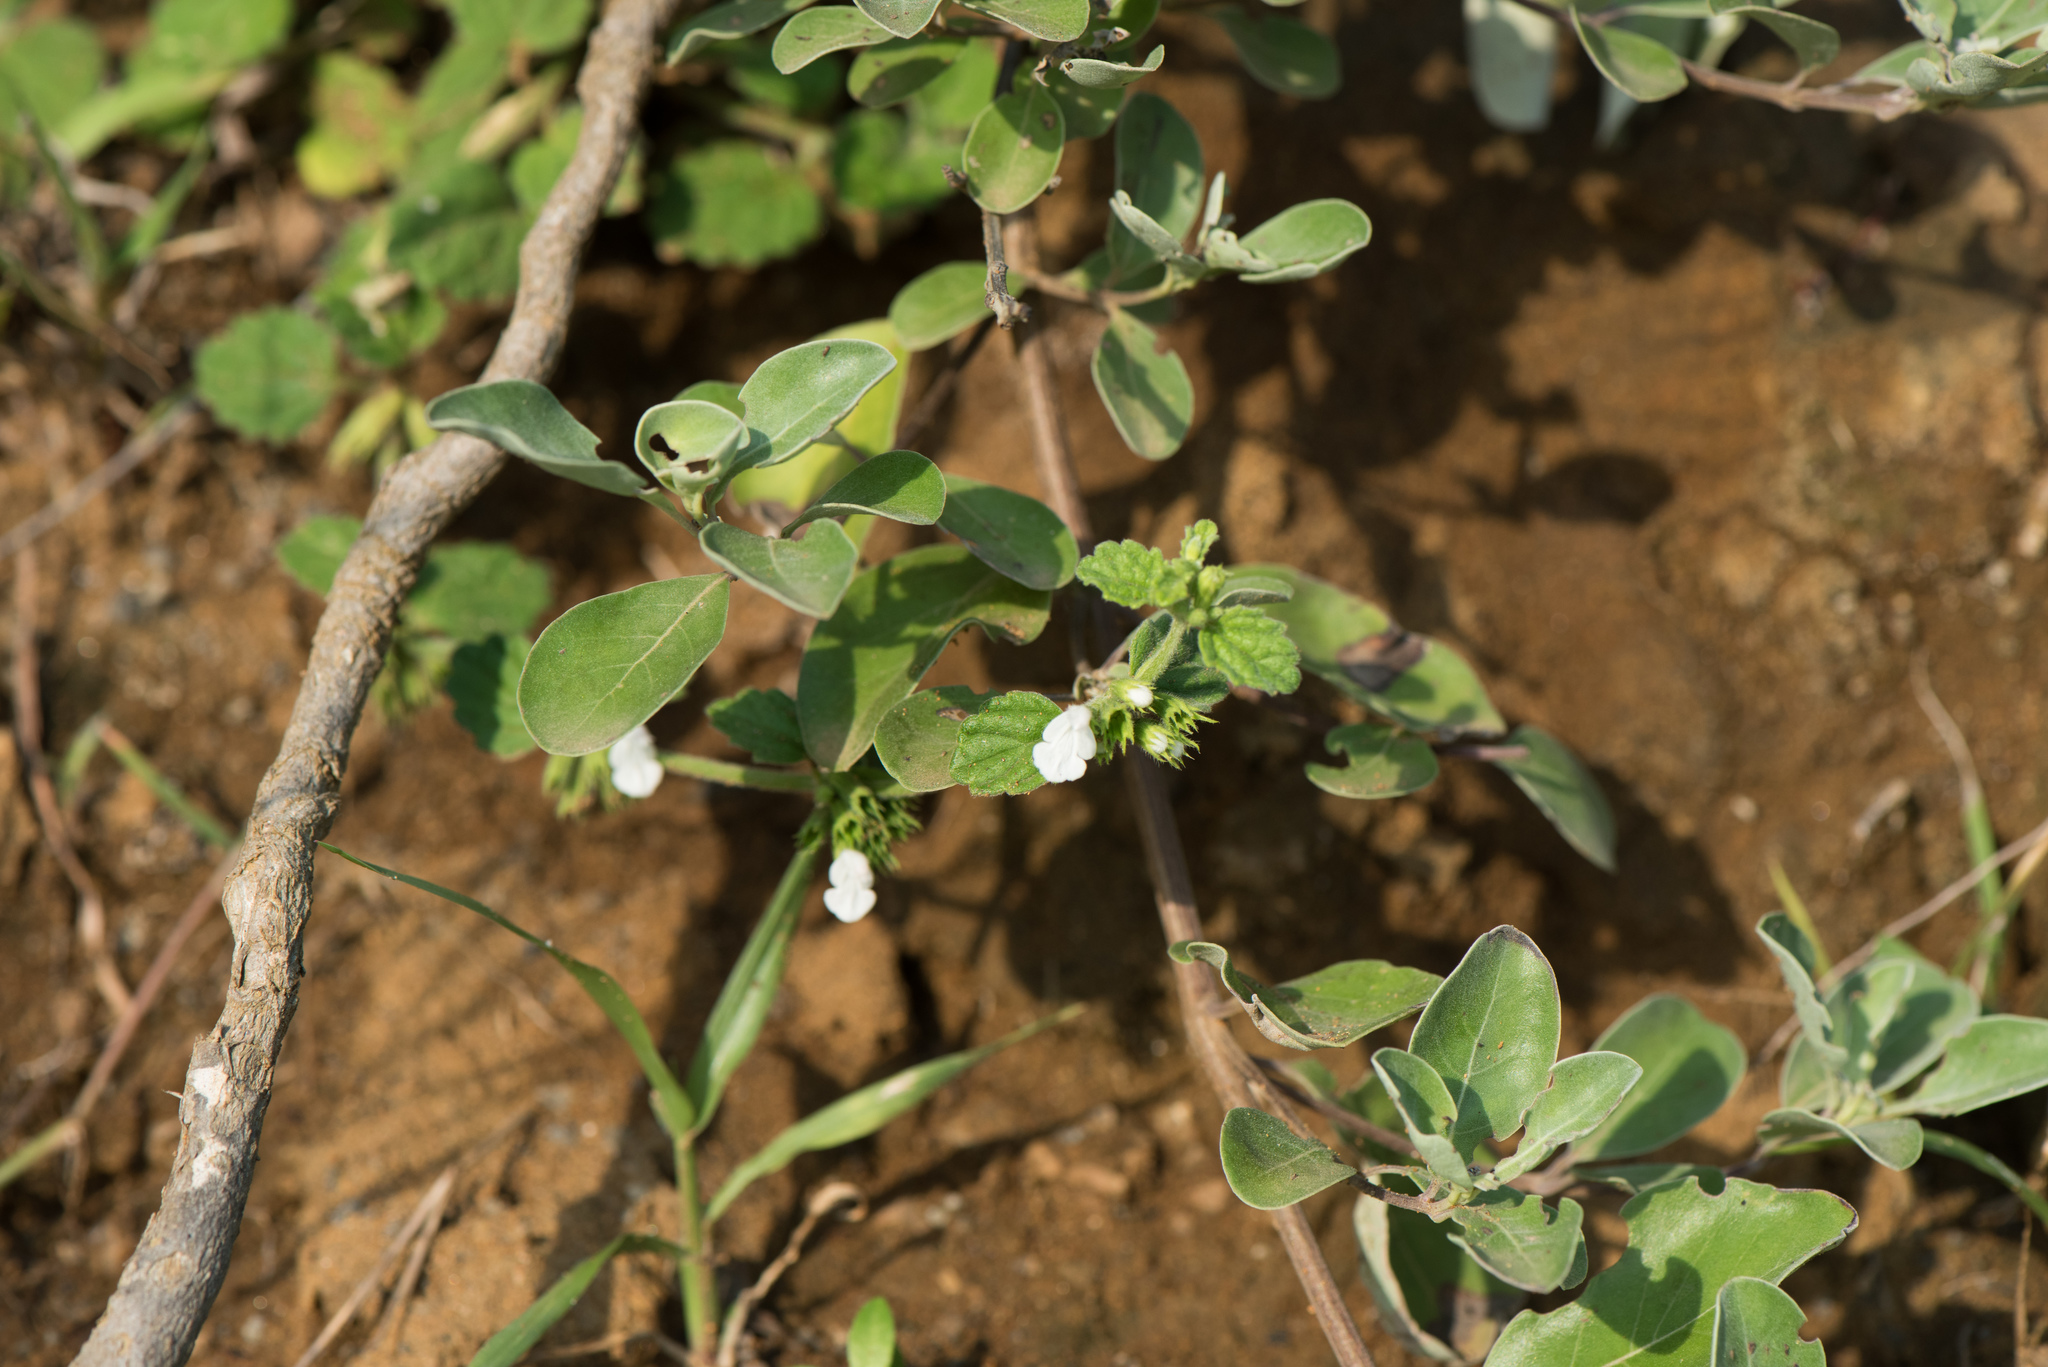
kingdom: Plantae
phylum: Tracheophyta
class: Magnoliopsida
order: Lamiales
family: Lamiaceae
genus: Leucas
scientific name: Leucas chinensis
